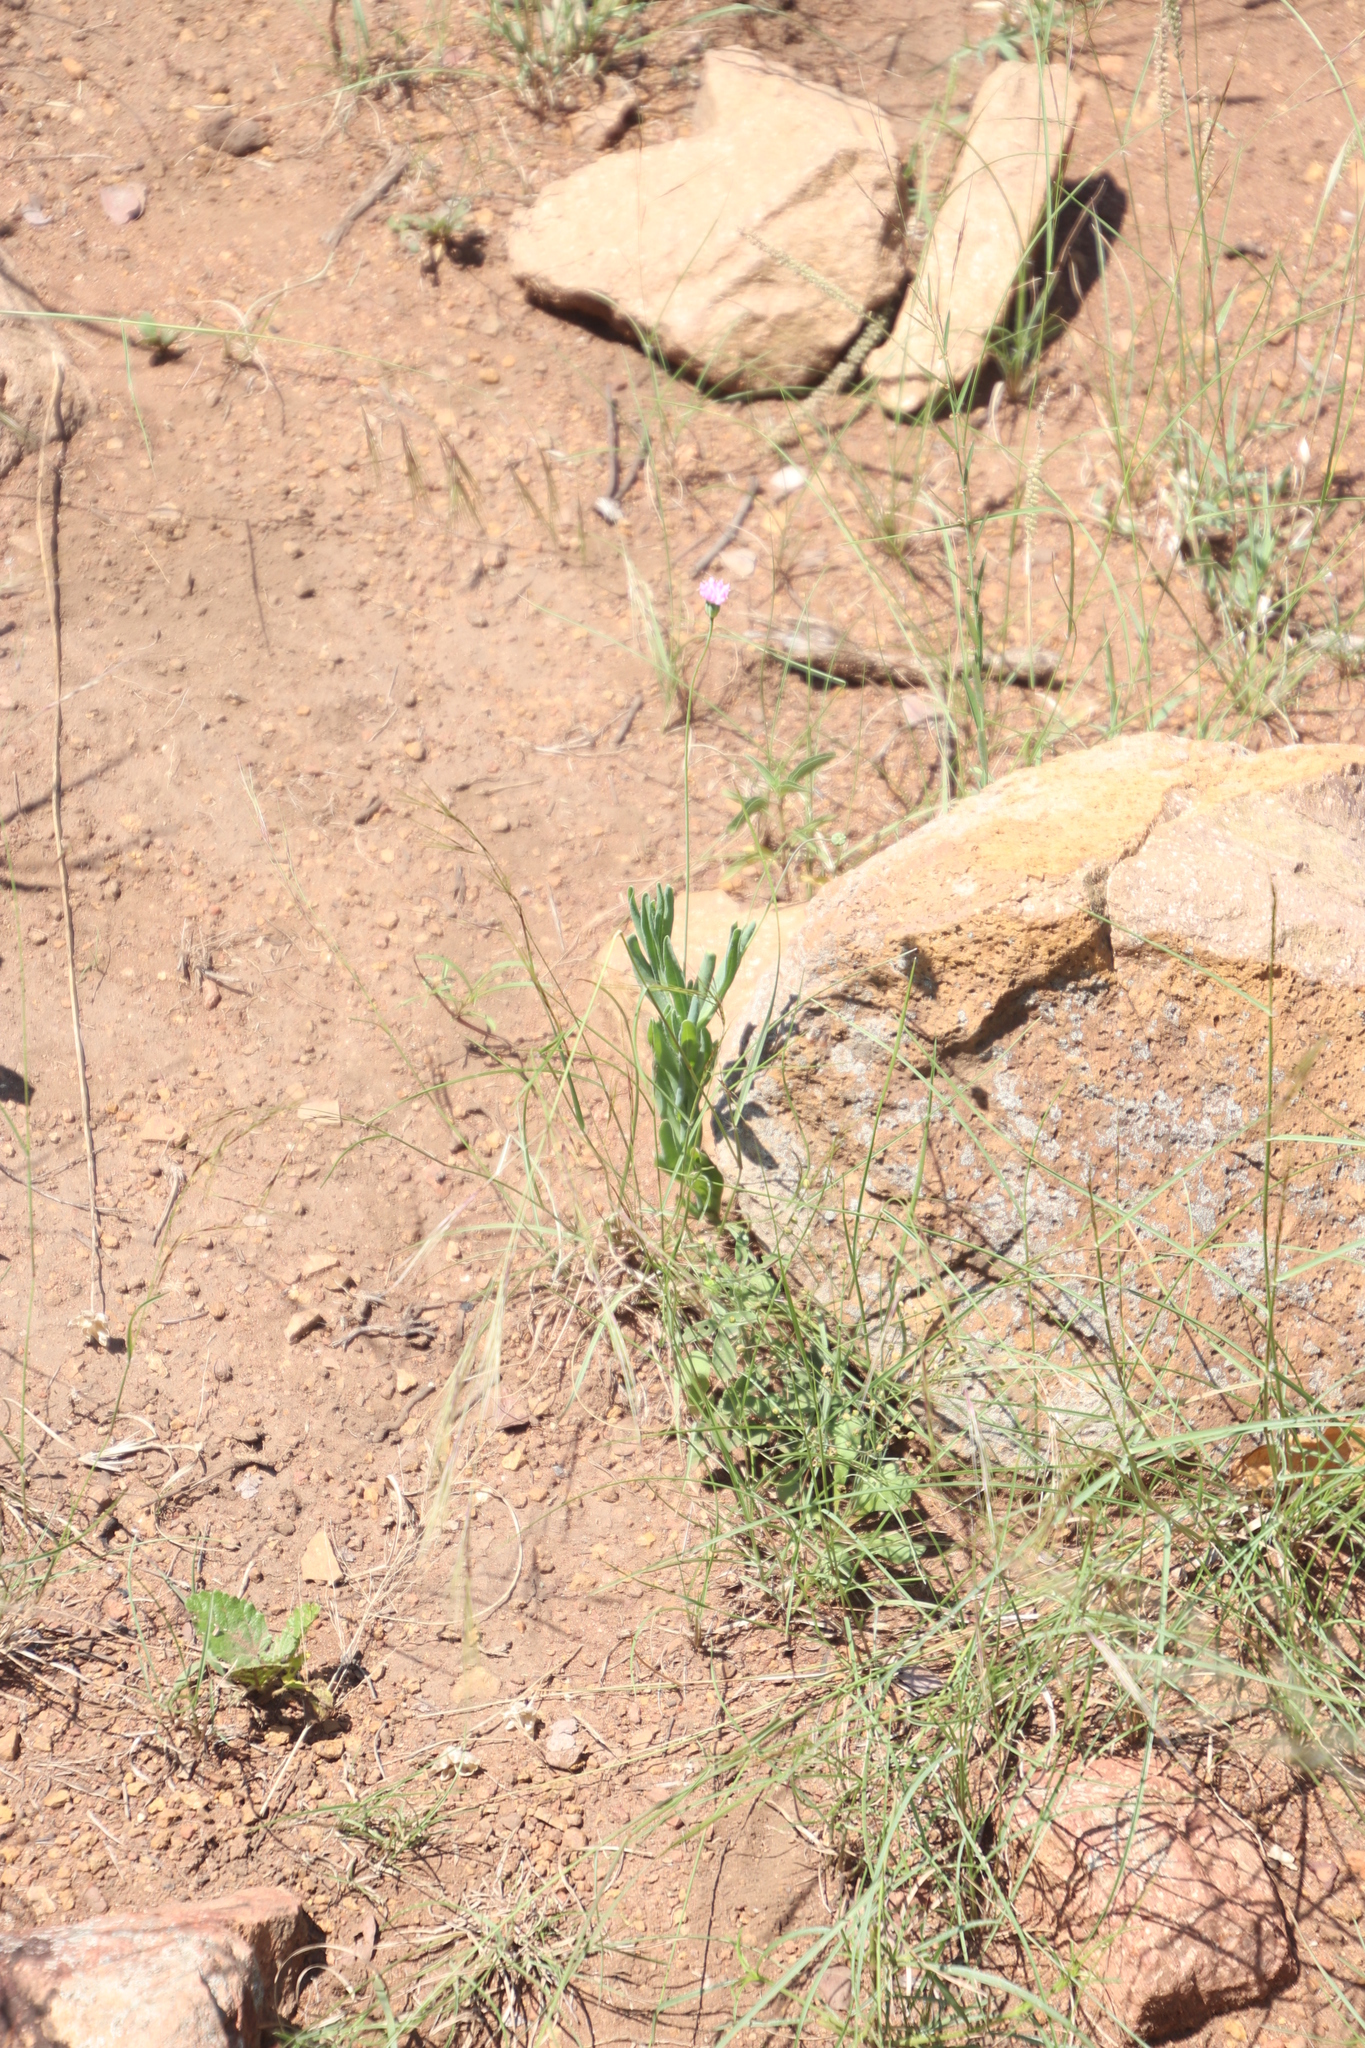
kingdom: Plantae
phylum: Tracheophyta
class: Magnoliopsida
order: Solanales
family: Convolvulaceae
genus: Seddera
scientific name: Seddera suffruticosa
